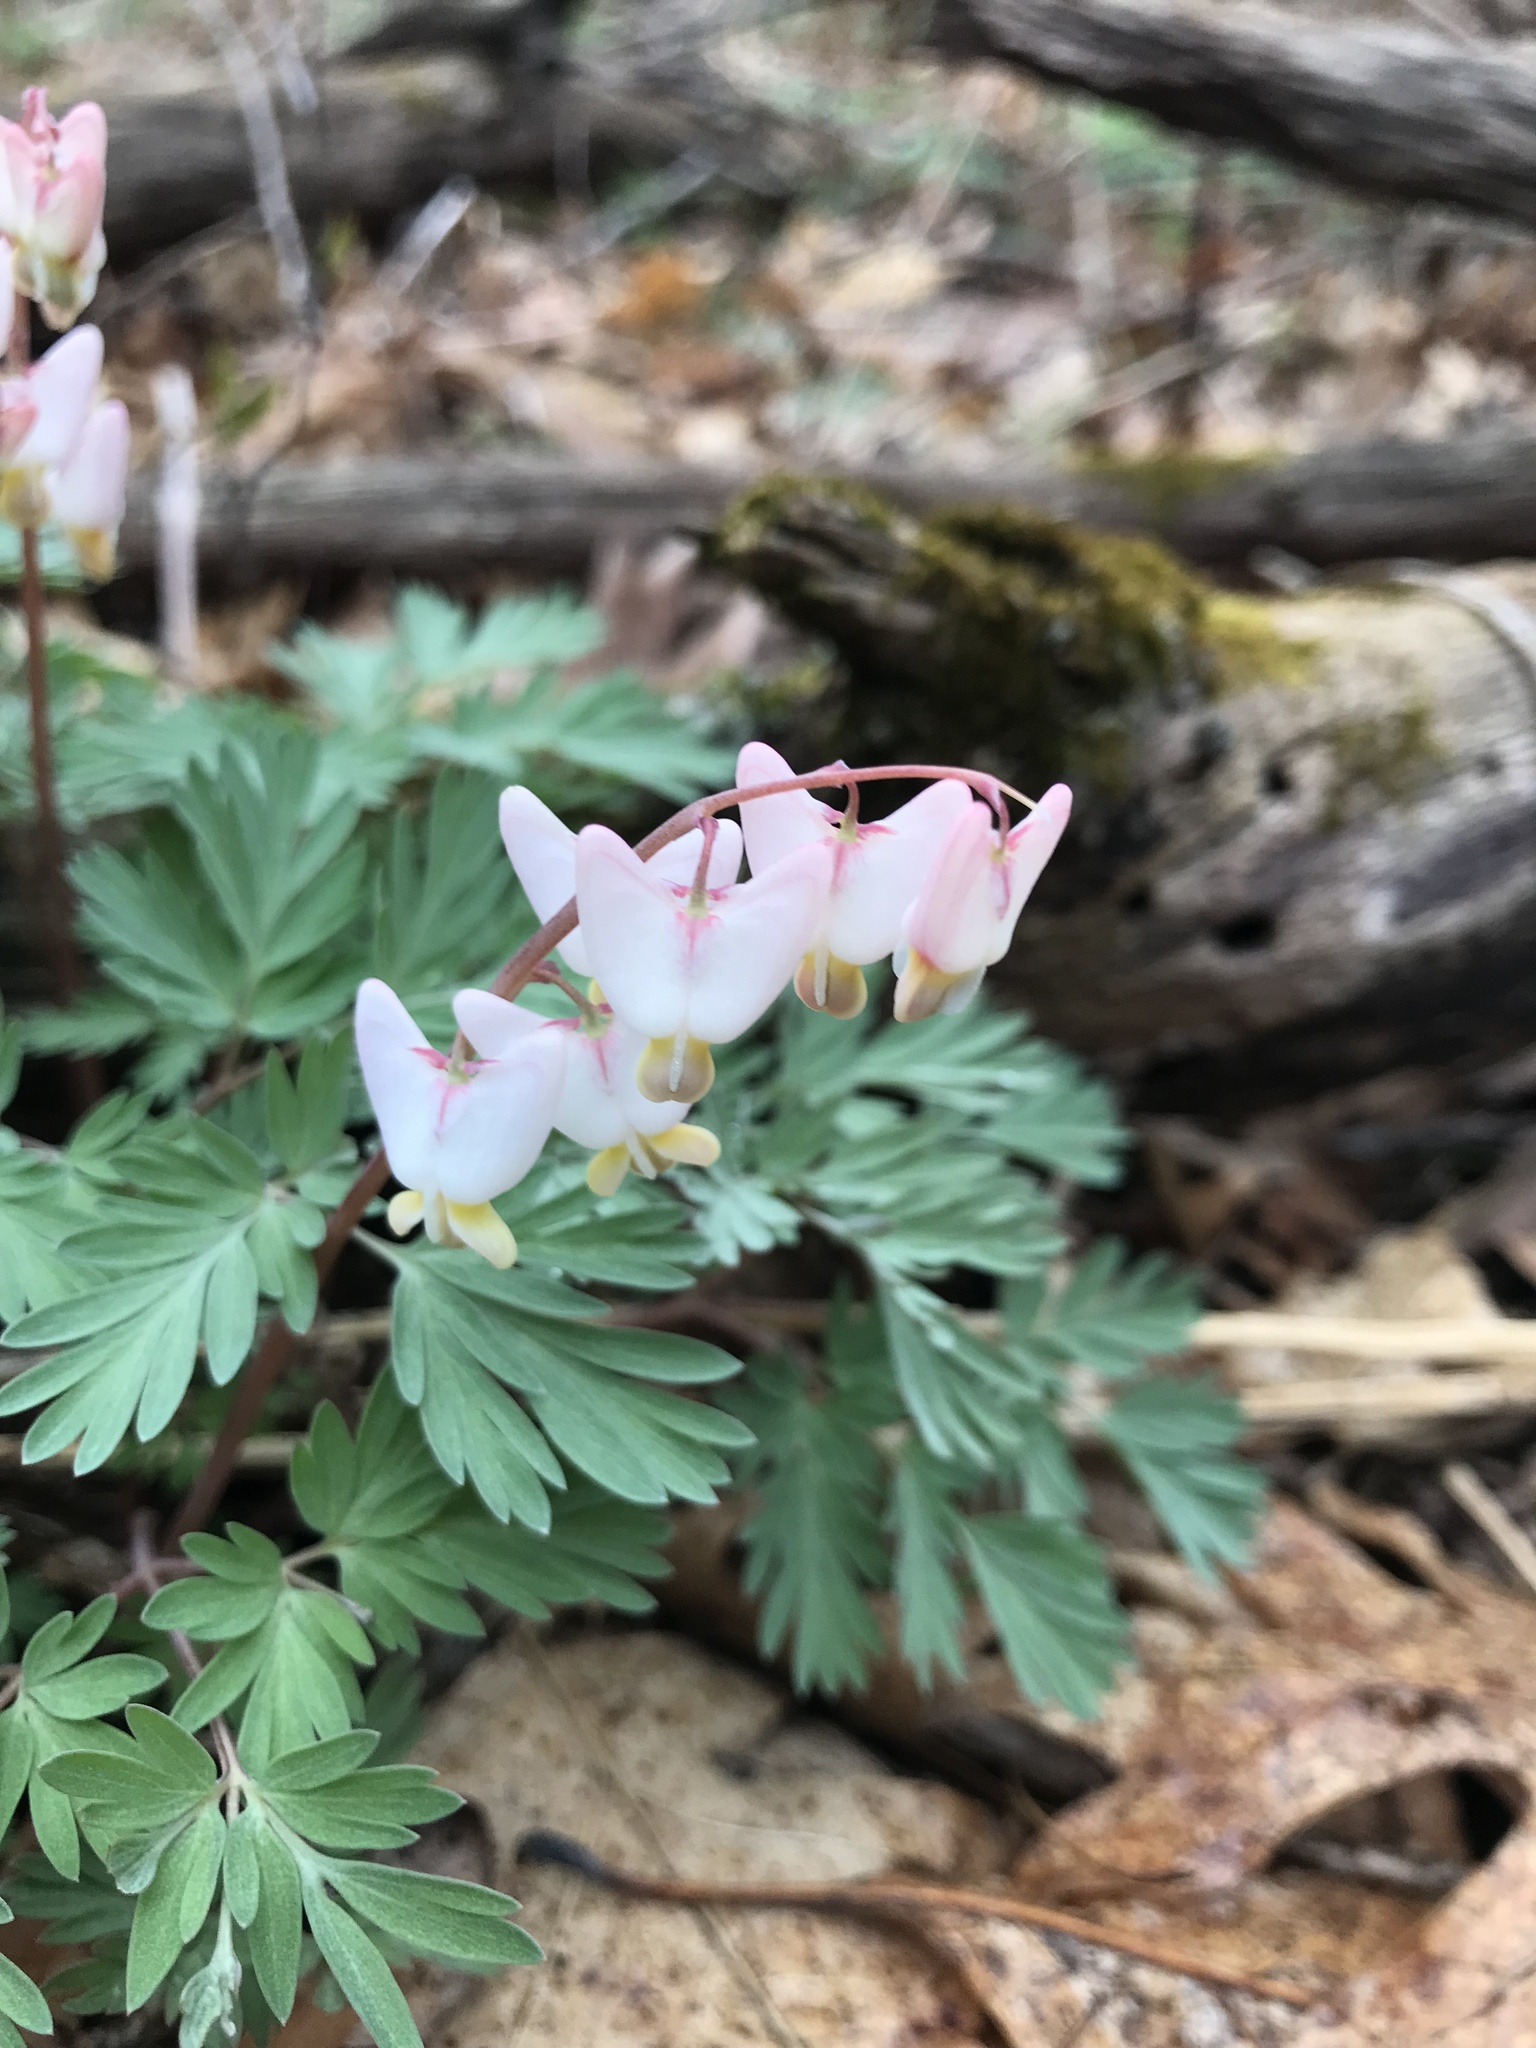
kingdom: Plantae
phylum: Tracheophyta
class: Magnoliopsida
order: Ranunculales
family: Papaveraceae
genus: Dicentra
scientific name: Dicentra cucullaria
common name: Dutchman's breeches
